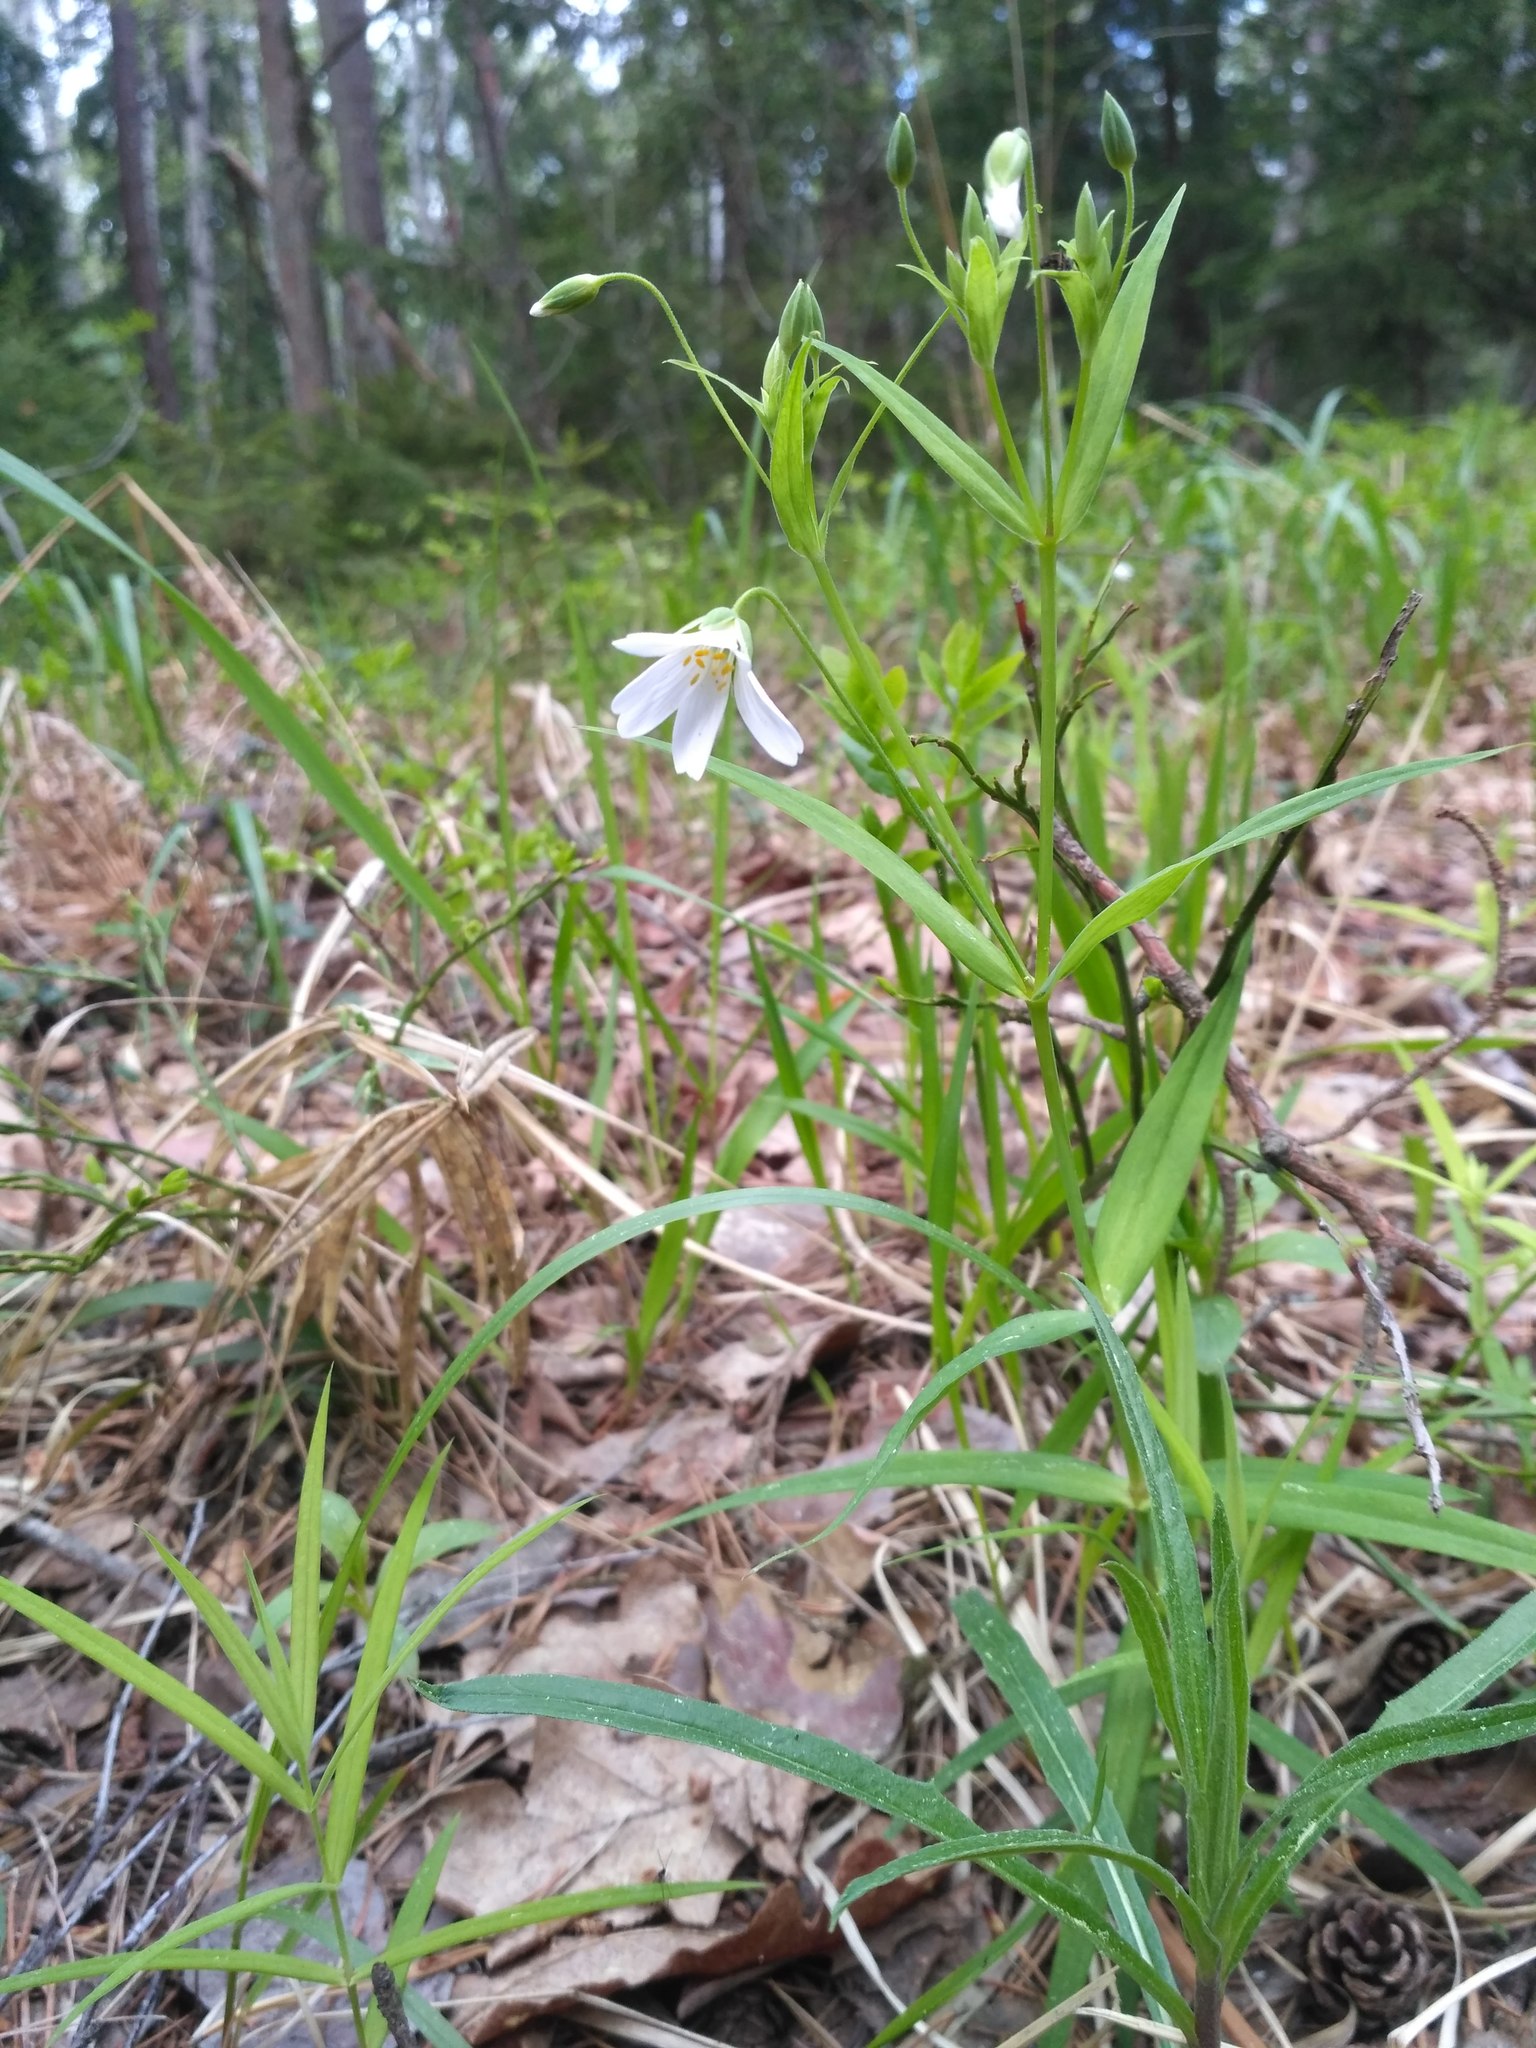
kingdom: Plantae
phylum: Tracheophyta
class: Magnoliopsida
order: Caryophyllales
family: Caryophyllaceae
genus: Rabelera
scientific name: Rabelera holostea
